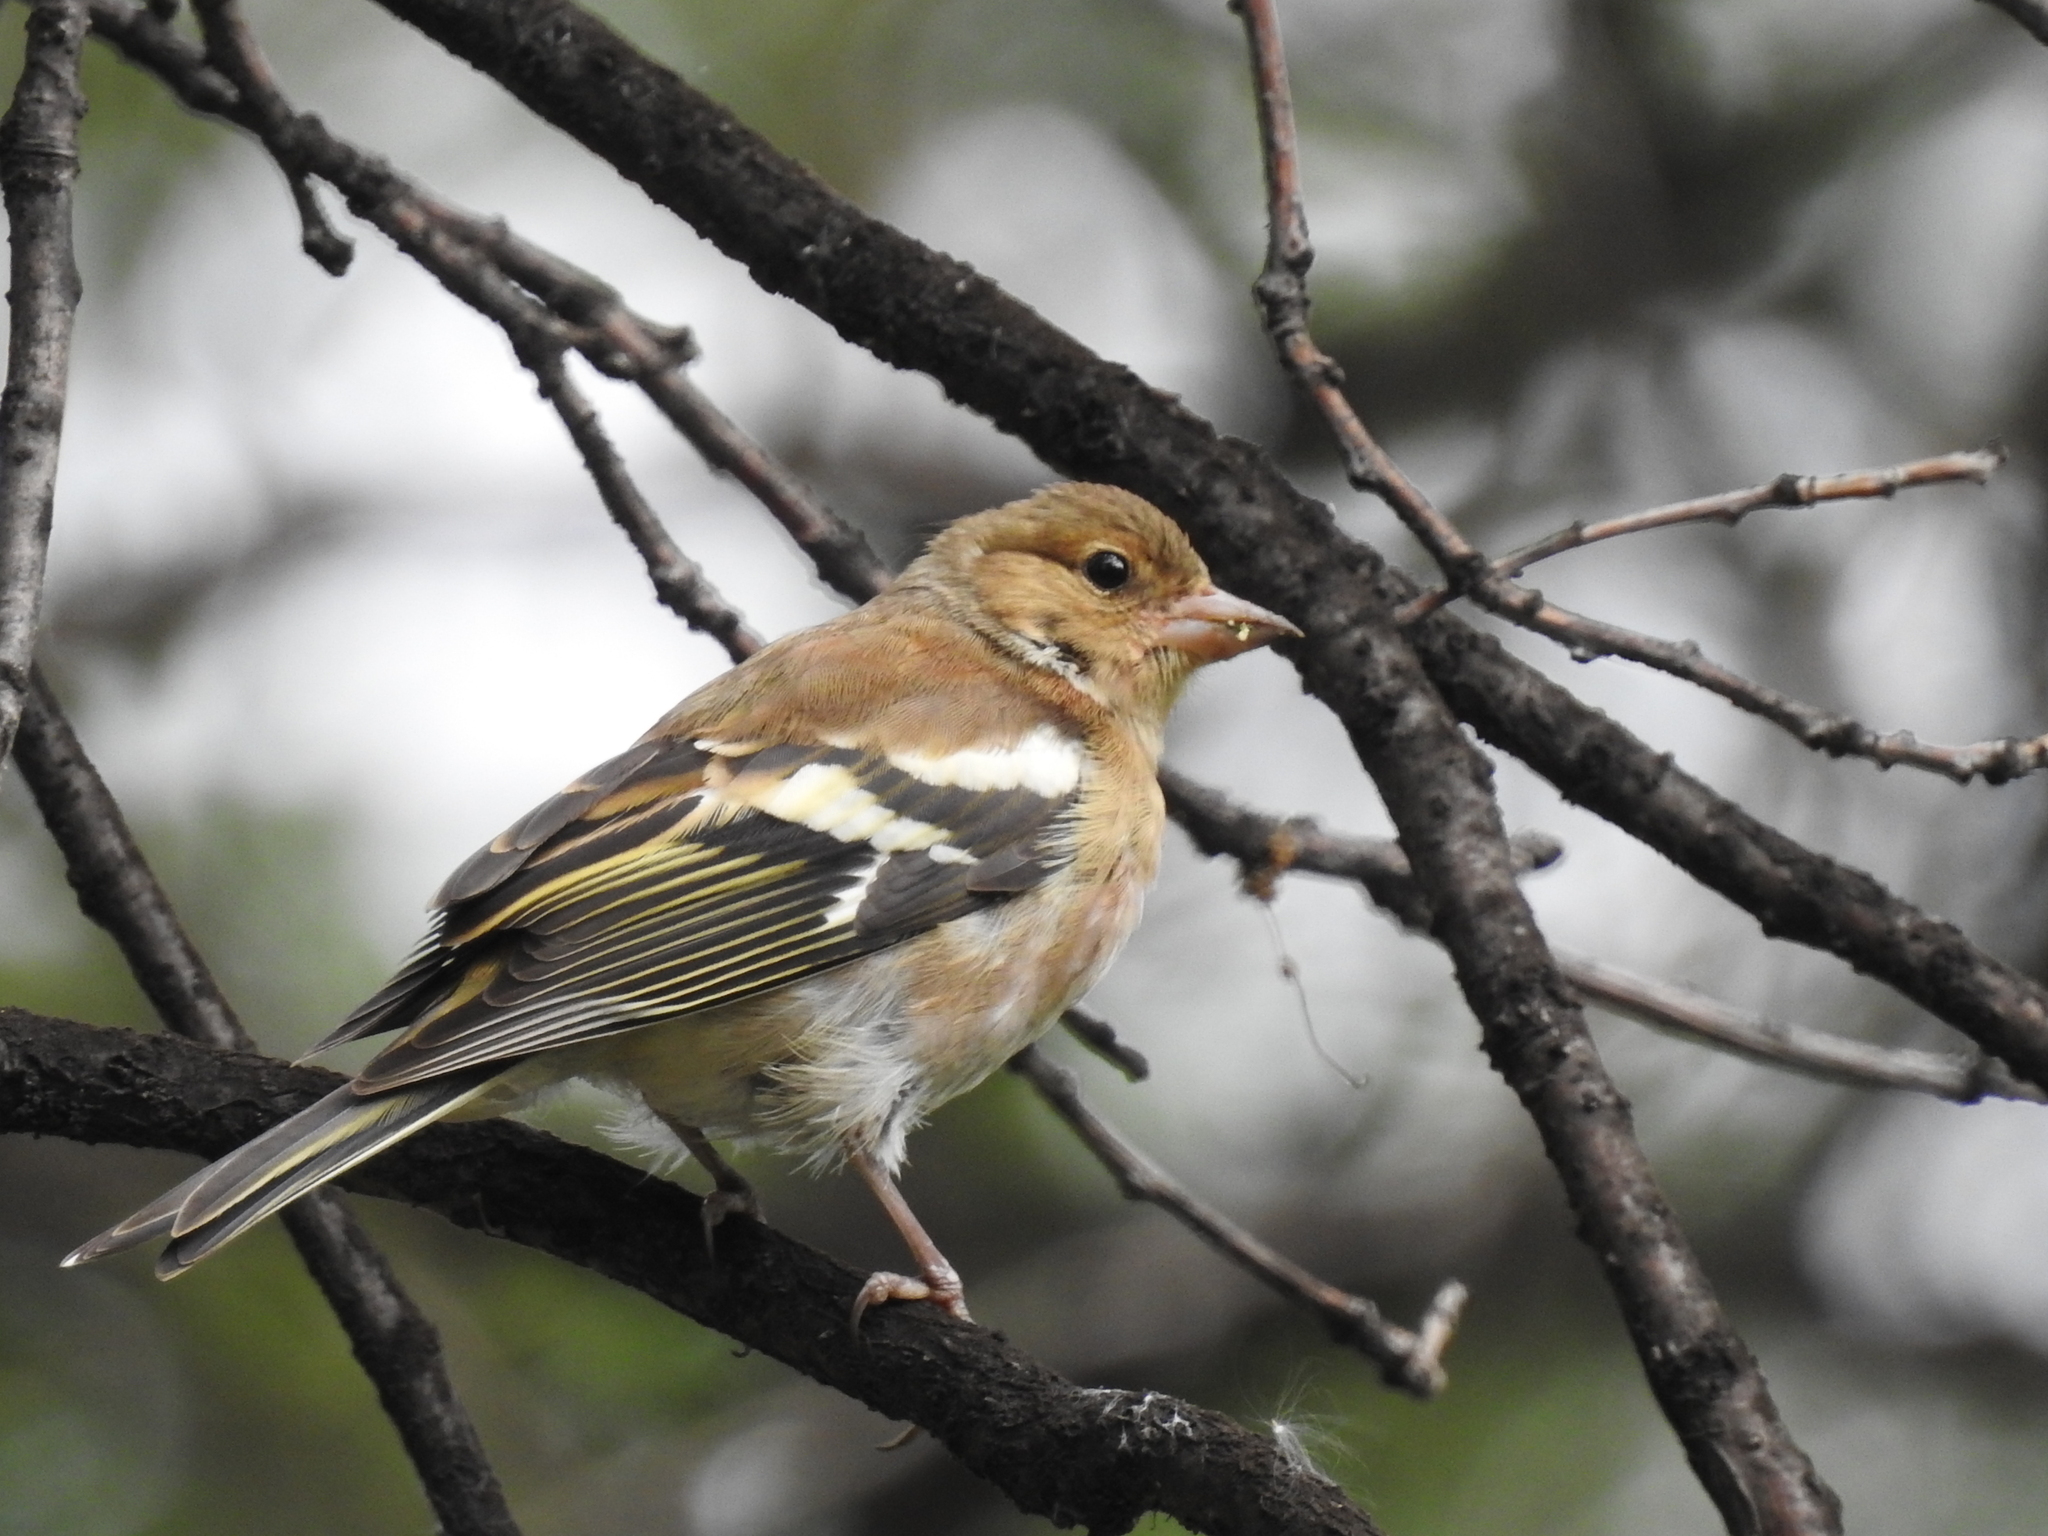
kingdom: Animalia
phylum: Chordata
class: Aves
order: Passeriformes
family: Fringillidae
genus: Fringilla
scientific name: Fringilla coelebs
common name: Common chaffinch
